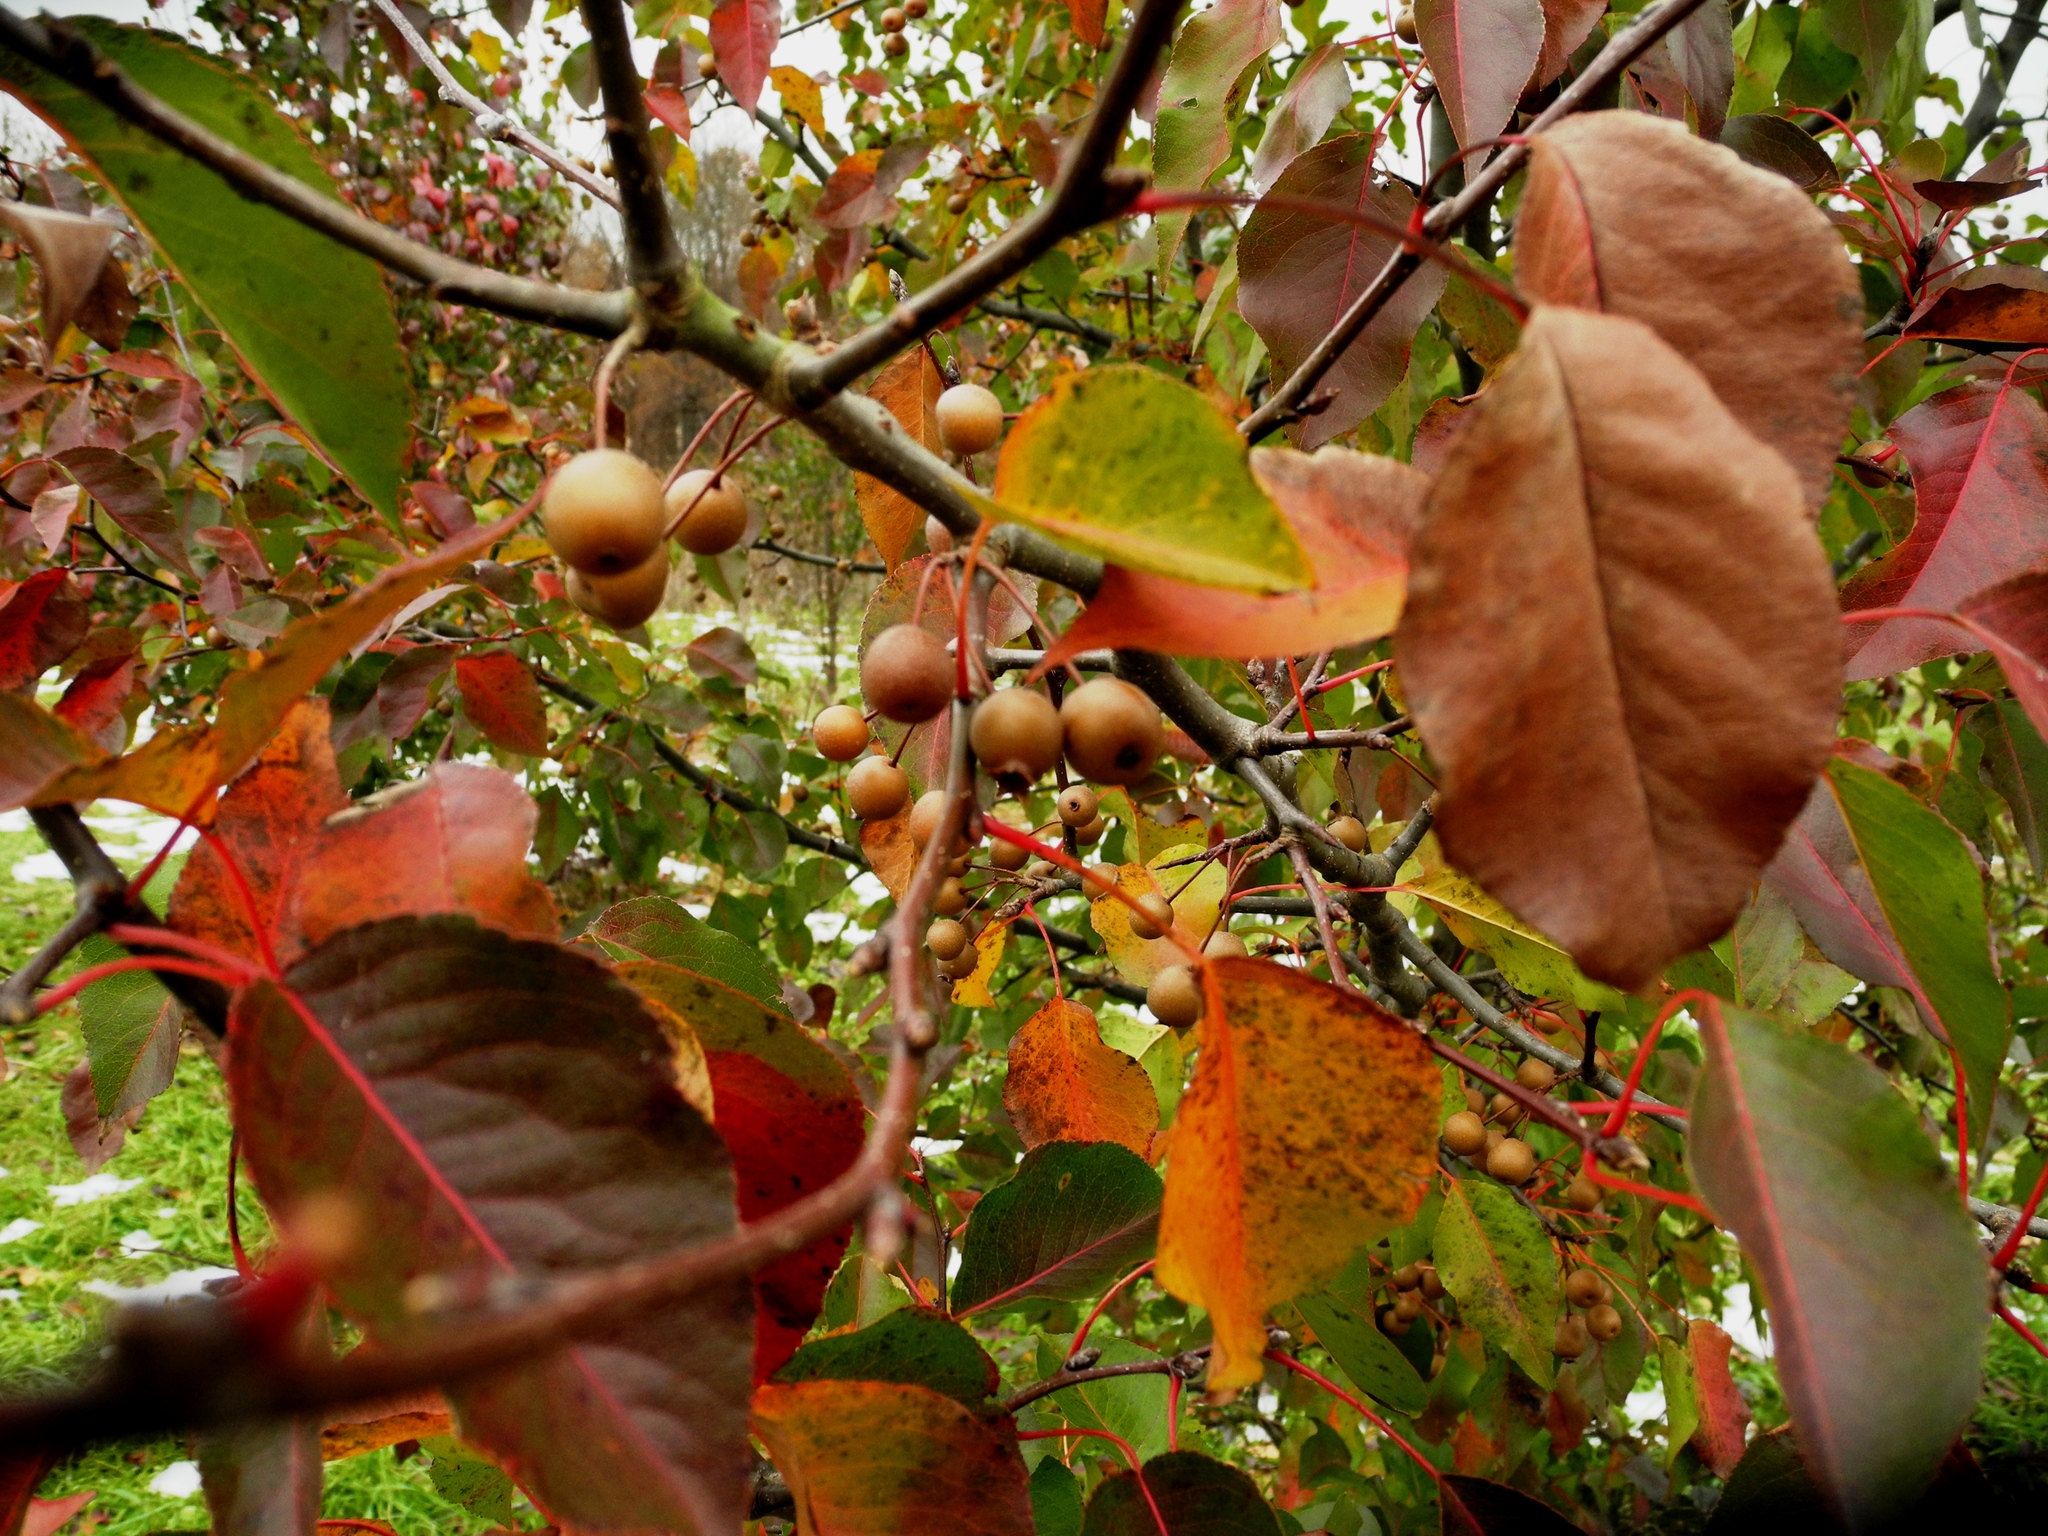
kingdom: Plantae
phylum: Tracheophyta
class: Magnoliopsida
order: Rosales
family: Rosaceae
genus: Pyrus
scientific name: Pyrus calleryana
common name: Callery pear
